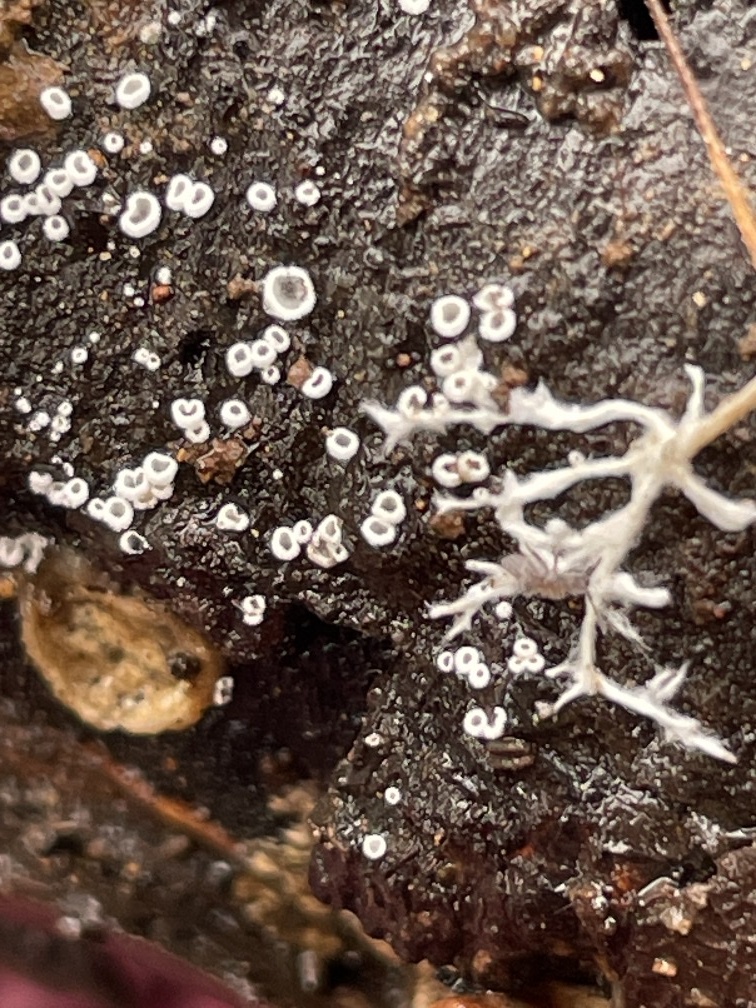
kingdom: Fungi
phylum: Ascomycota
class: Lecanoromycetes
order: Ostropales
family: Stictidaceae
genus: Stictis
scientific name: Stictis radiata
